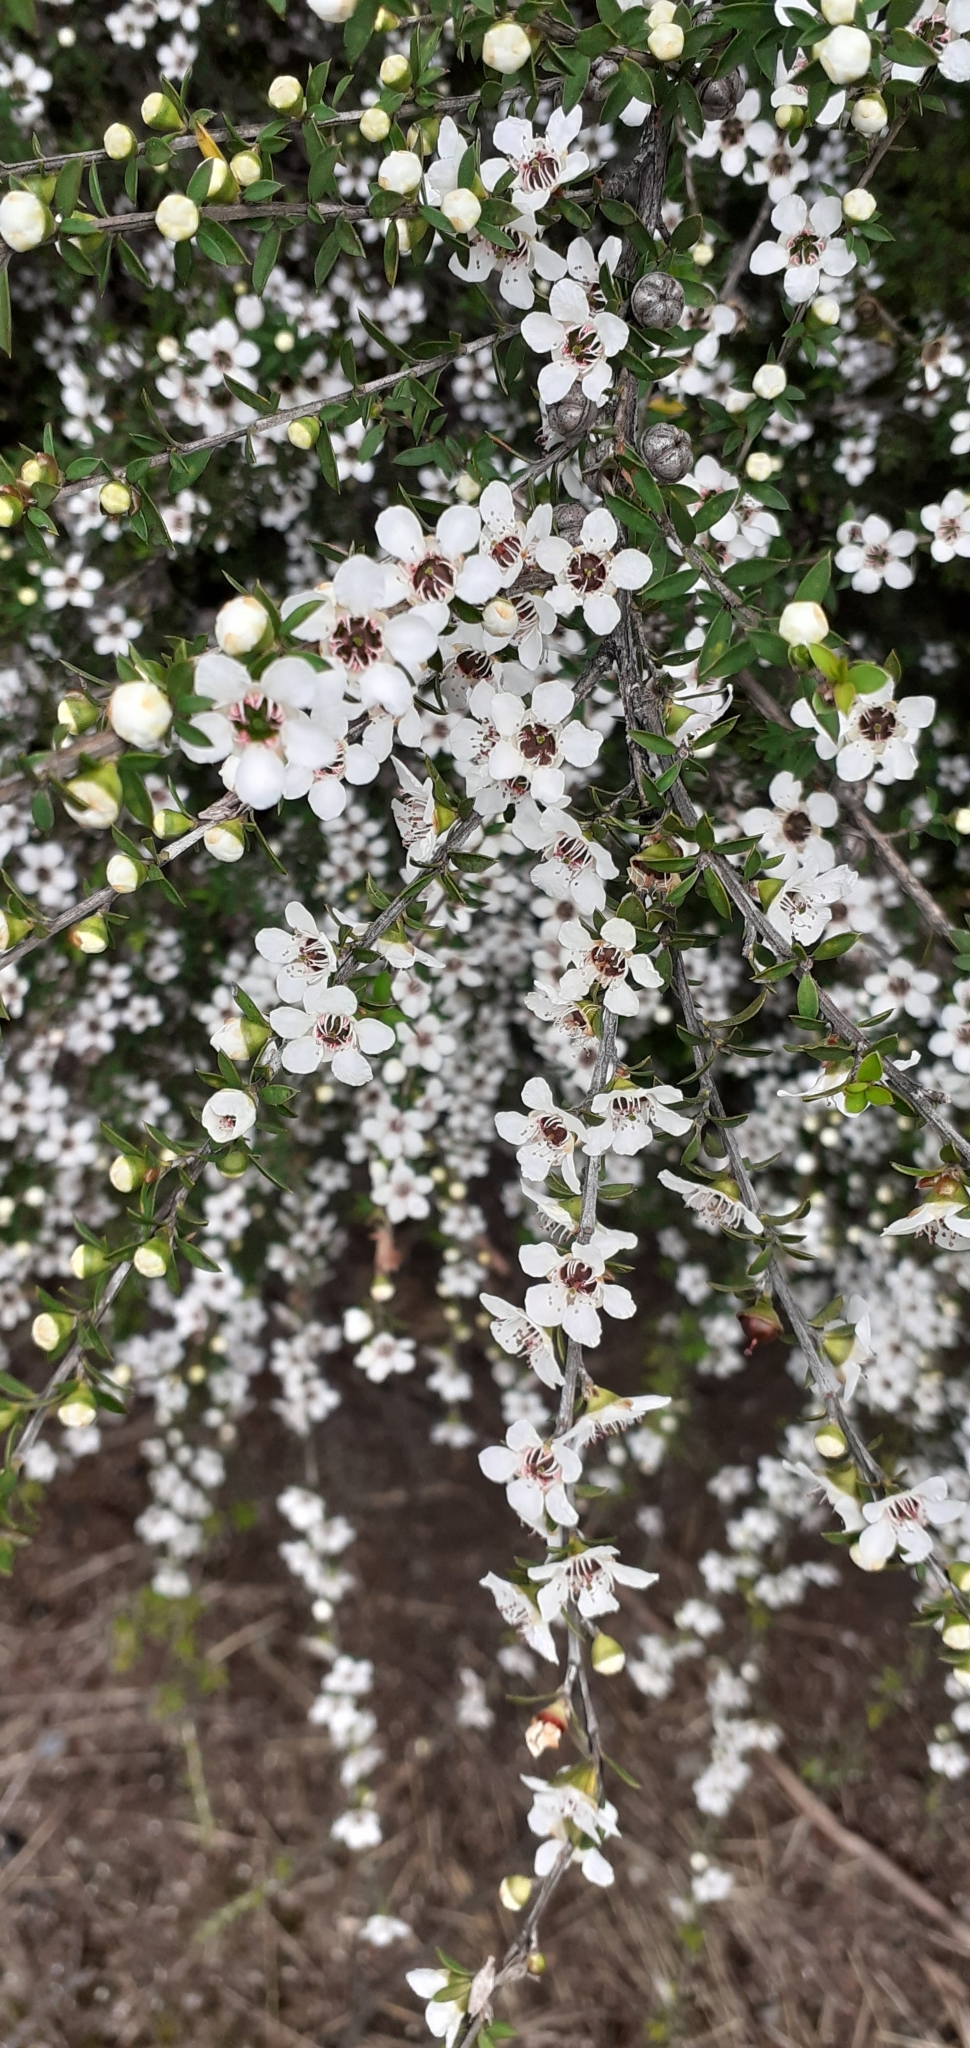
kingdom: Plantae
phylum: Tracheophyta
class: Magnoliopsida
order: Myrtales
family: Myrtaceae
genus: Leptospermum
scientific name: Leptospermum scoparium
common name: Broom tea-tree
